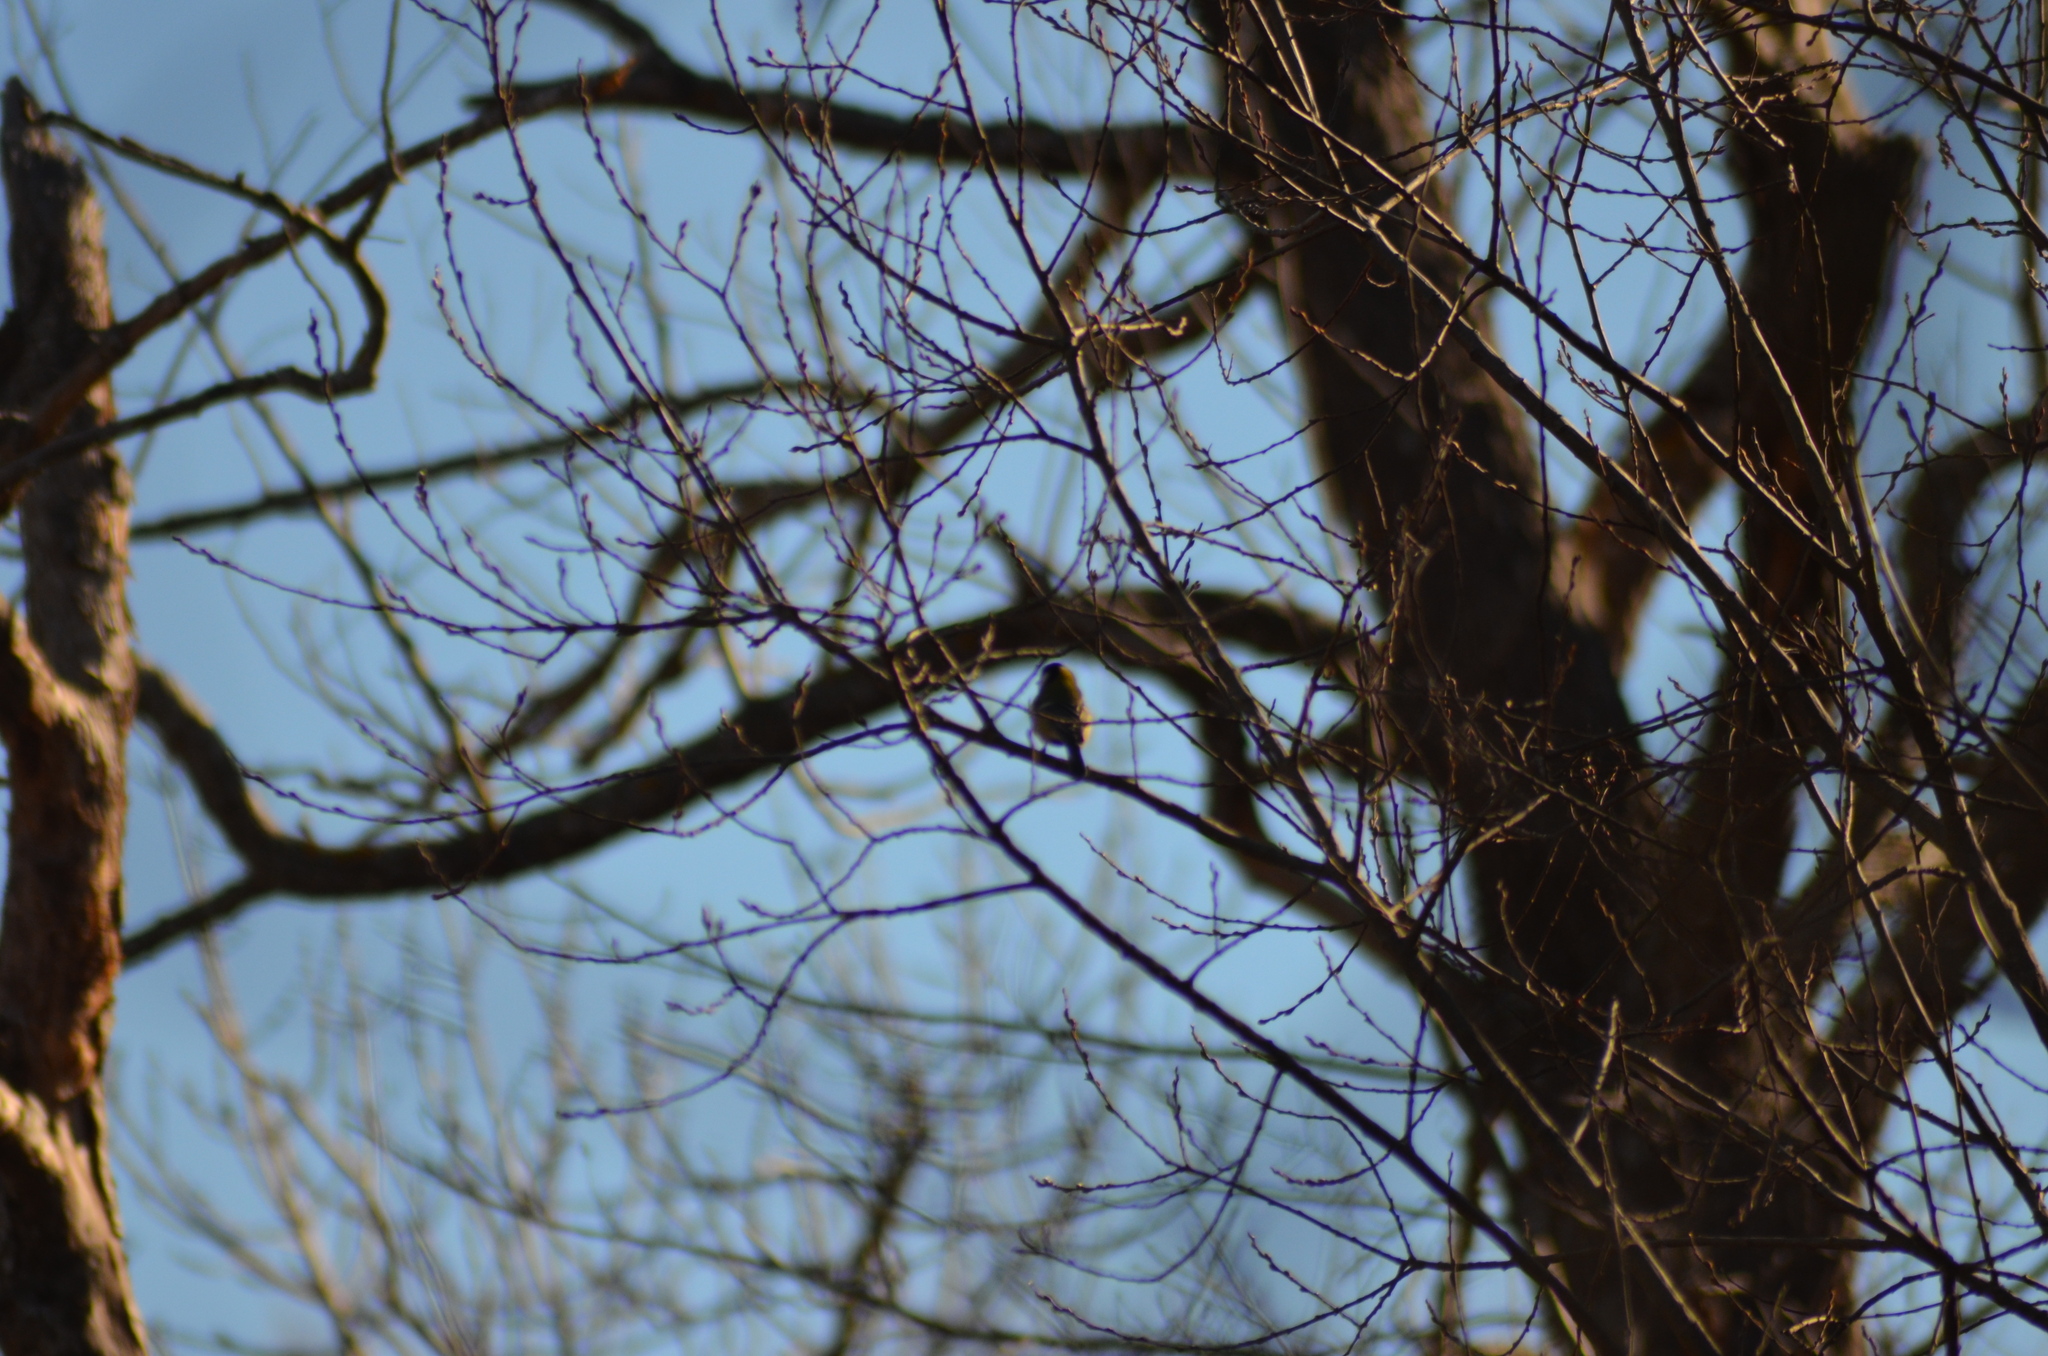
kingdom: Animalia
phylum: Chordata
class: Aves
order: Passeriformes
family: Paridae
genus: Parus
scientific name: Parus major
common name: Great tit
